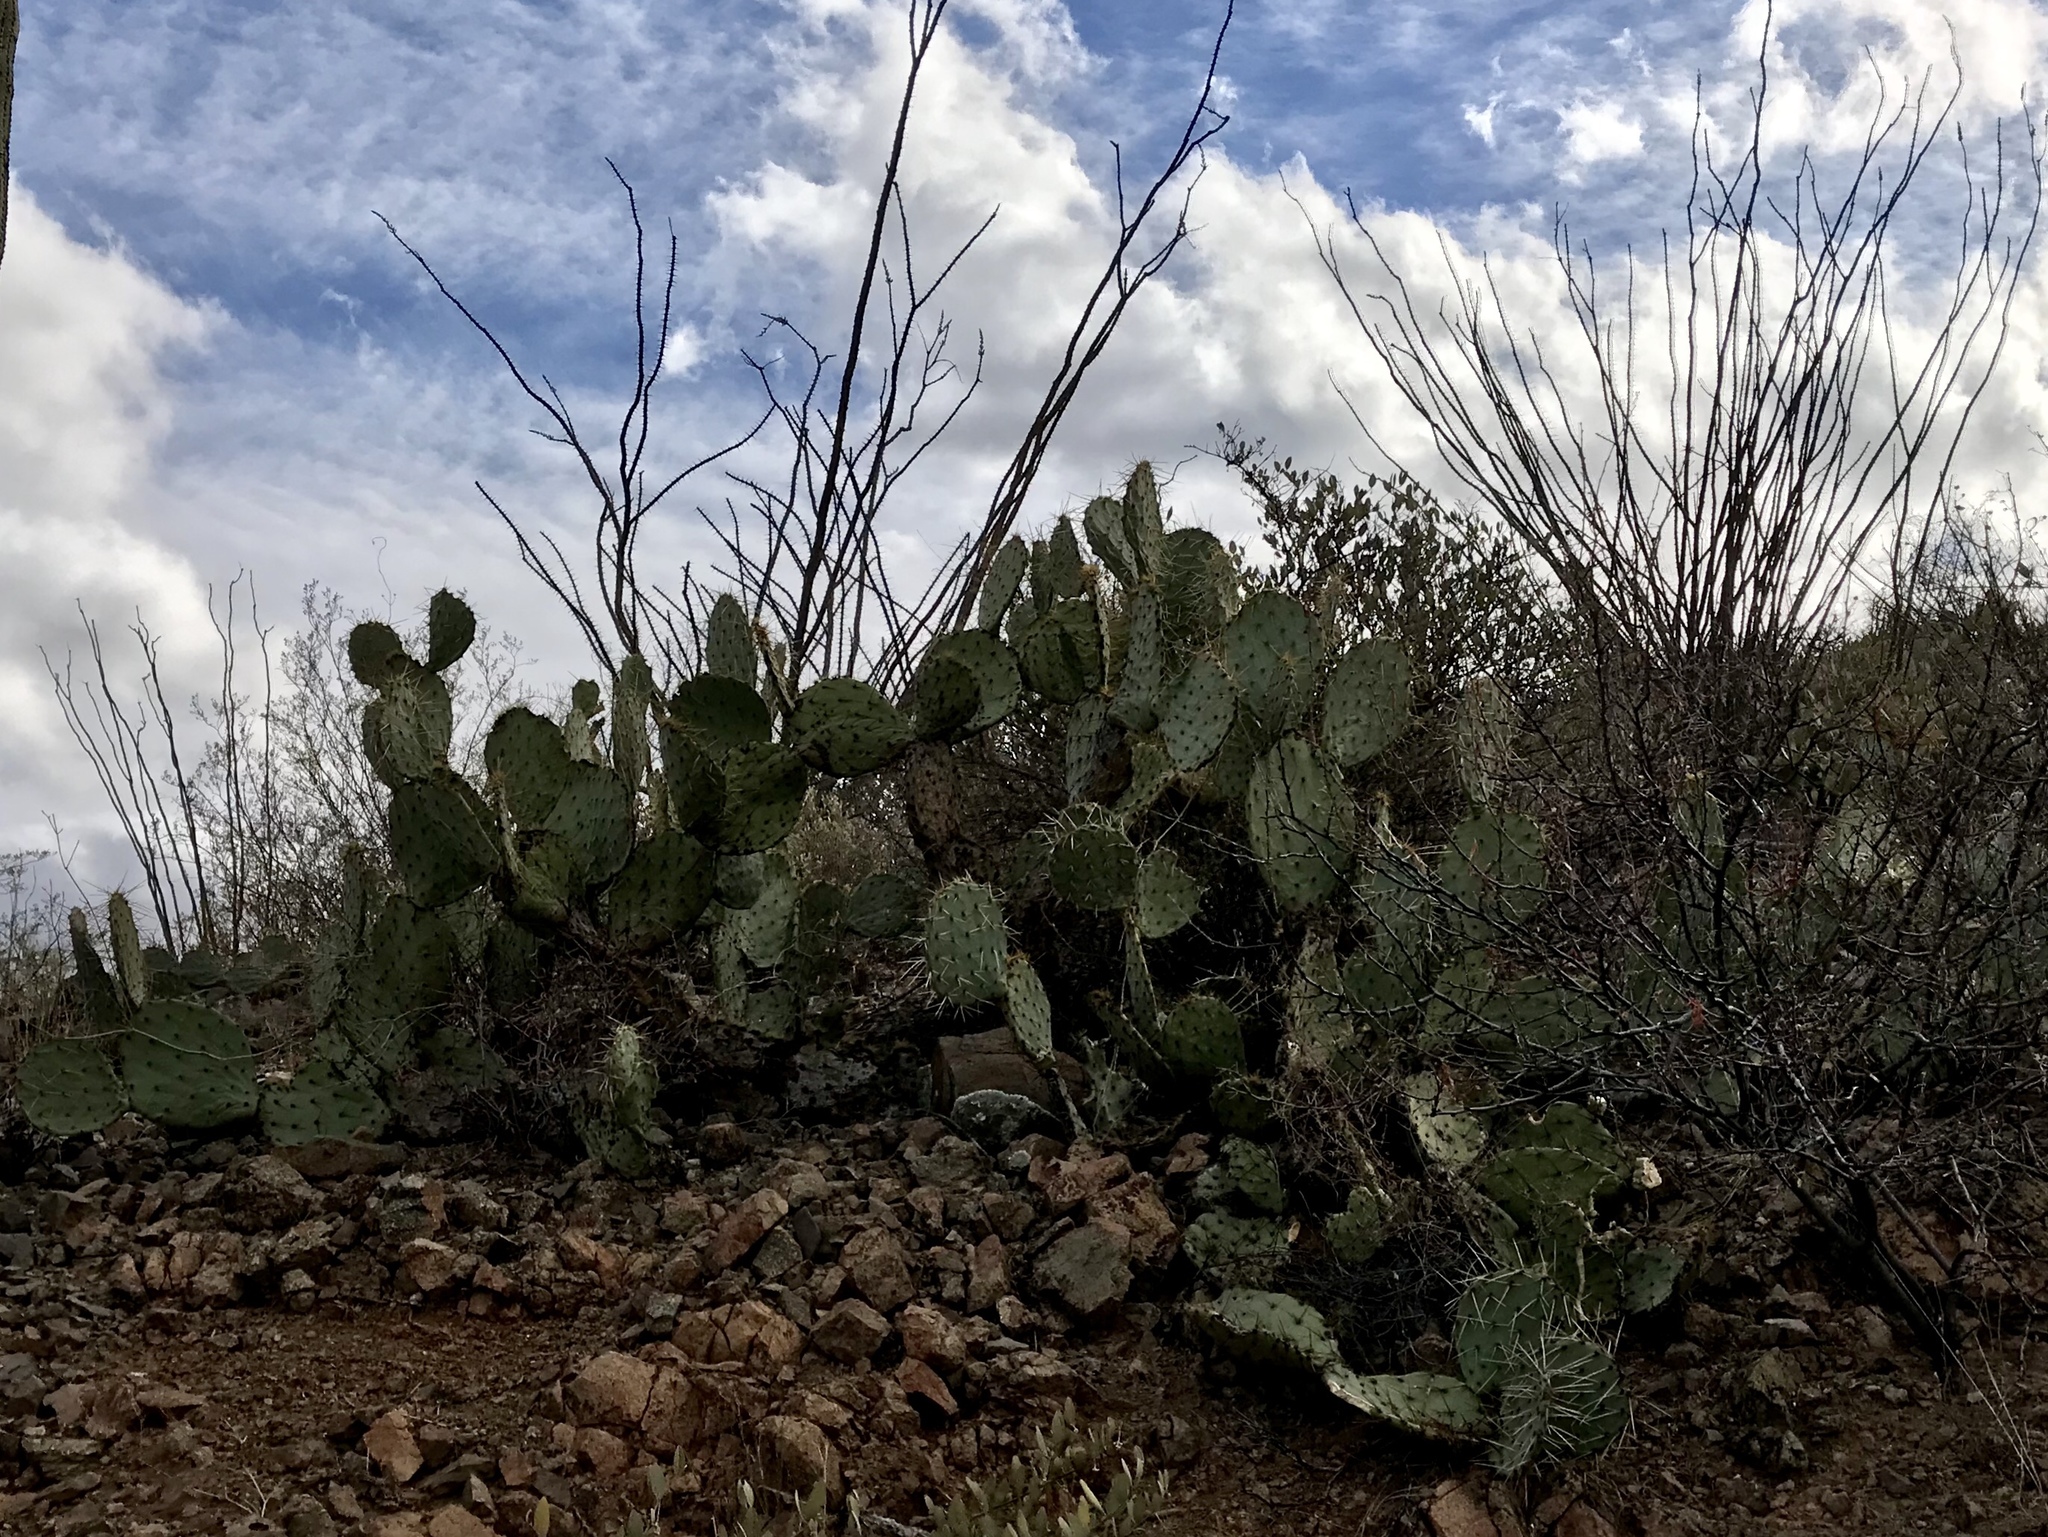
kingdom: Plantae
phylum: Tracheophyta
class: Magnoliopsida
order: Caryophyllales
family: Cactaceae
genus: Opuntia
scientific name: Opuntia engelmannii
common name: Cactus-apple
